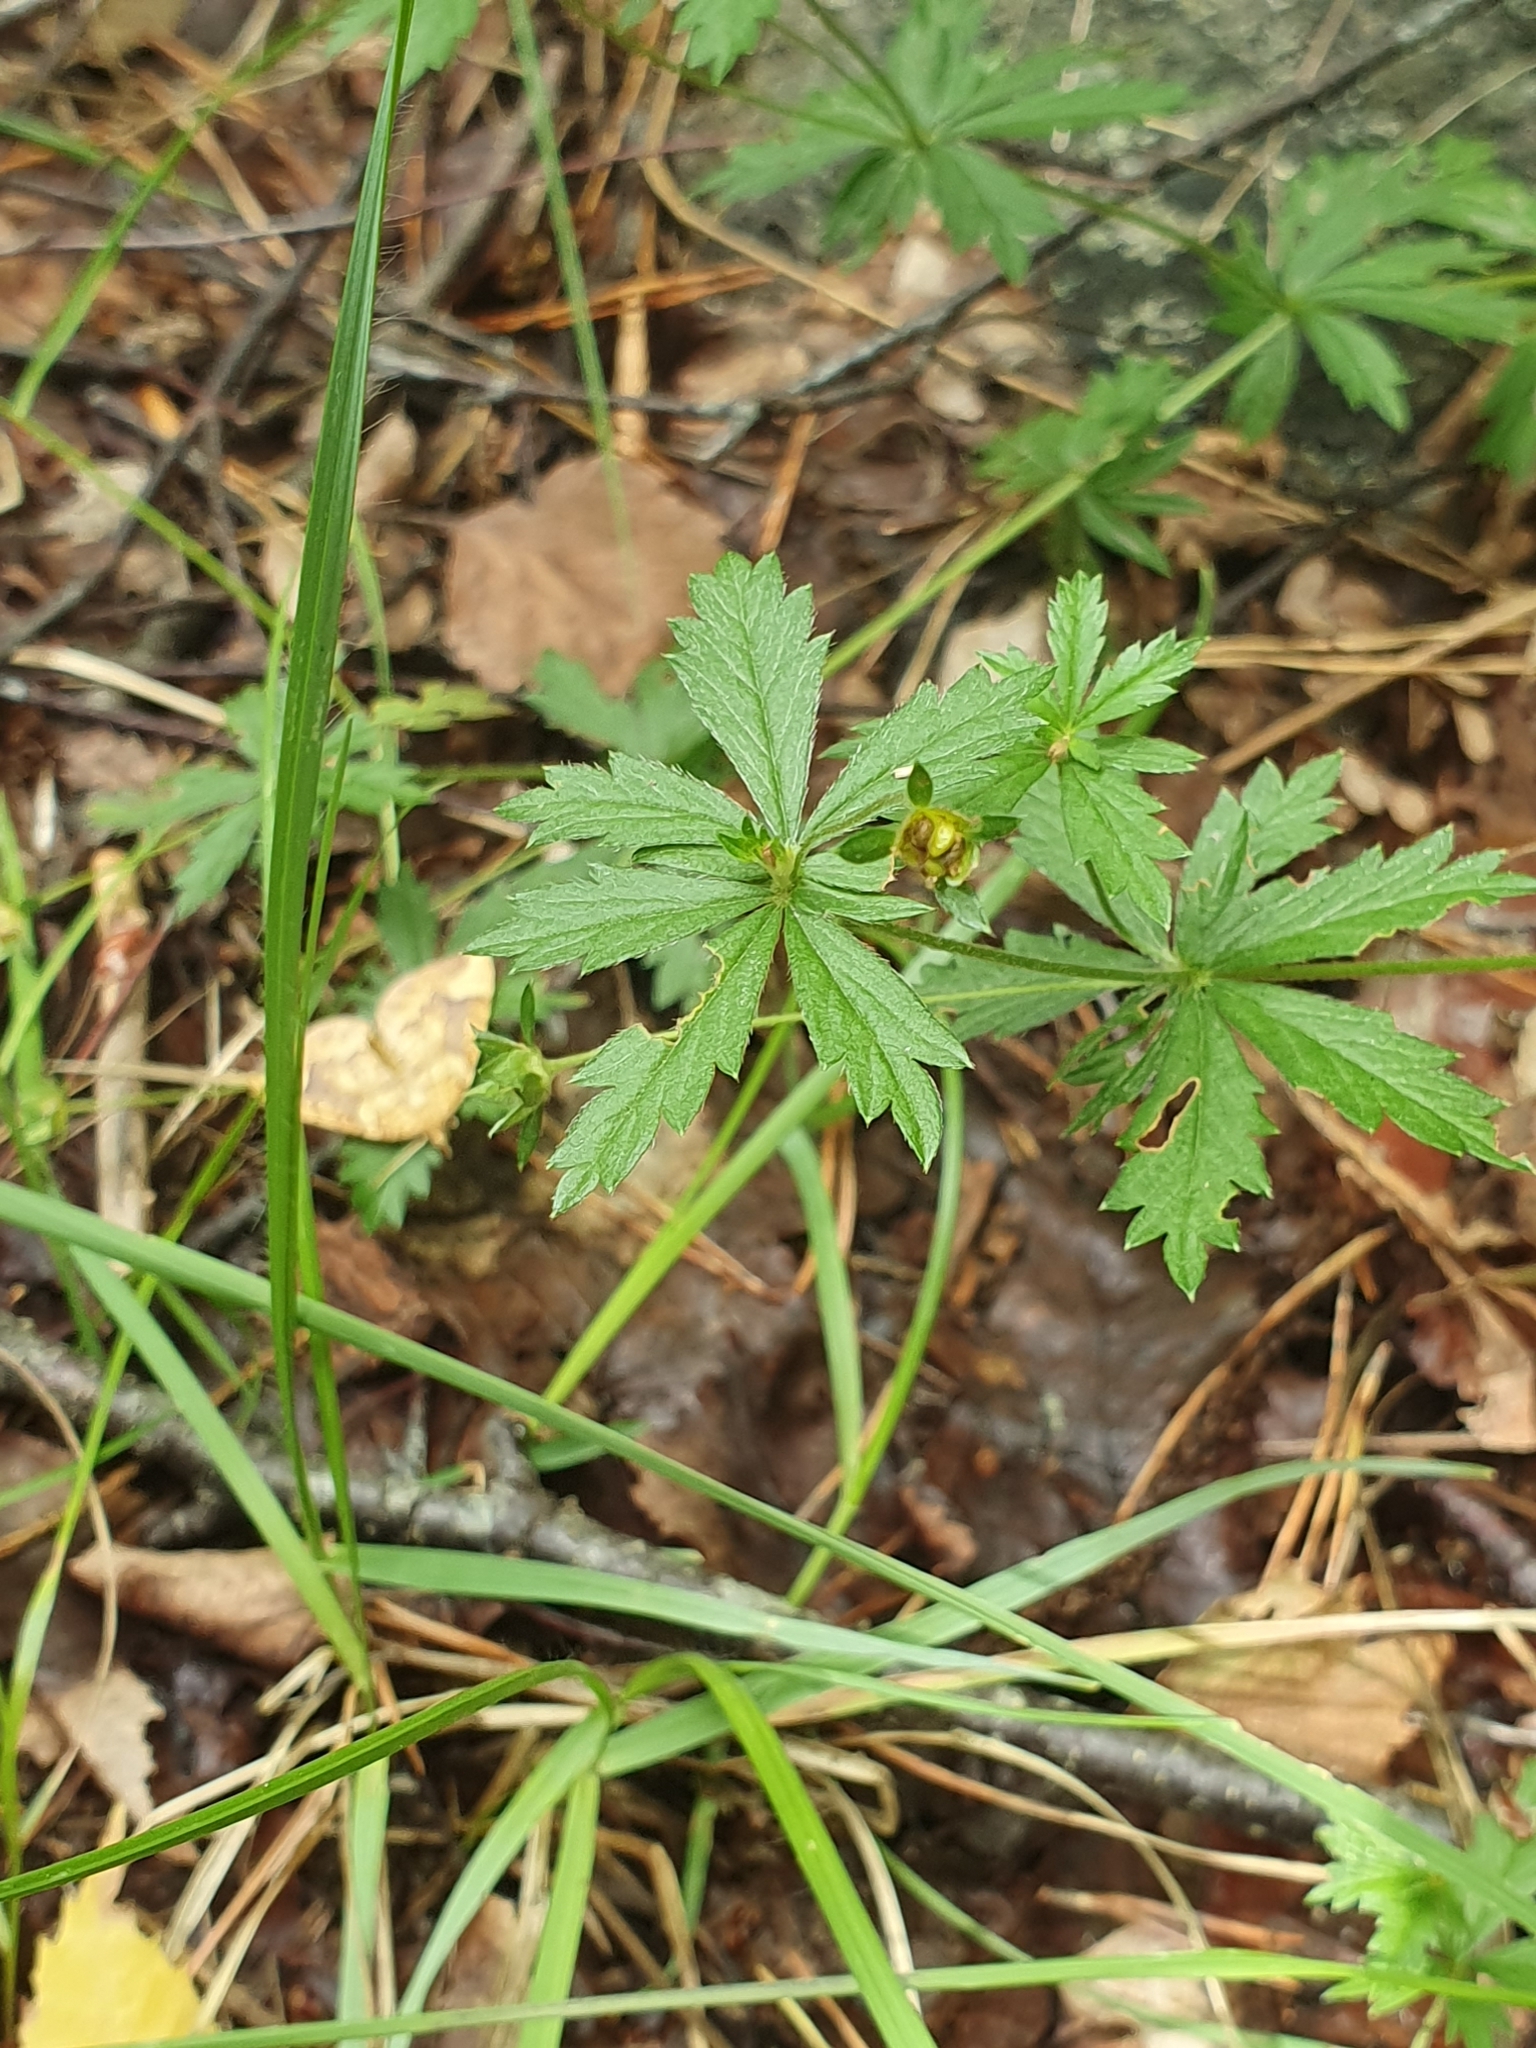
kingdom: Plantae
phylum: Tracheophyta
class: Magnoliopsida
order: Rosales
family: Rosaceae
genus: Potentilla
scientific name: Potentilla erecta
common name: Tormentil
